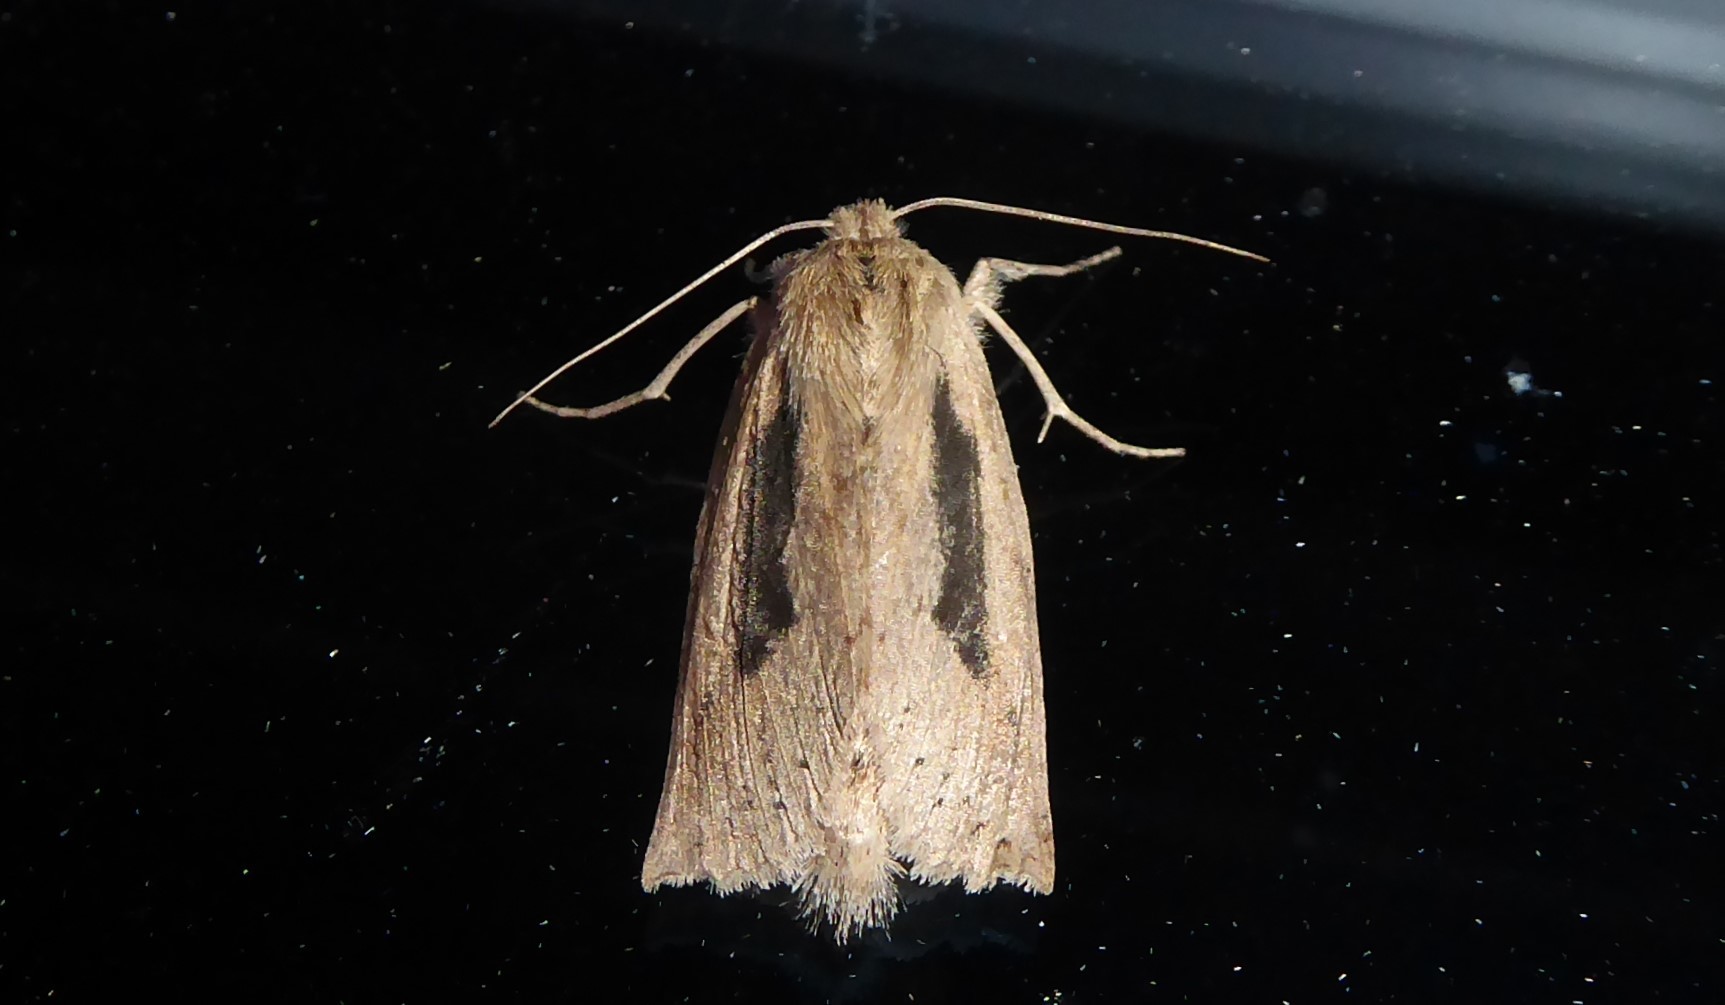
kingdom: Animalia
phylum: Arthropoda
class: Insecta
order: Lepidoptera
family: Geometridae
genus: Declana
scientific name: Declana leptomera
